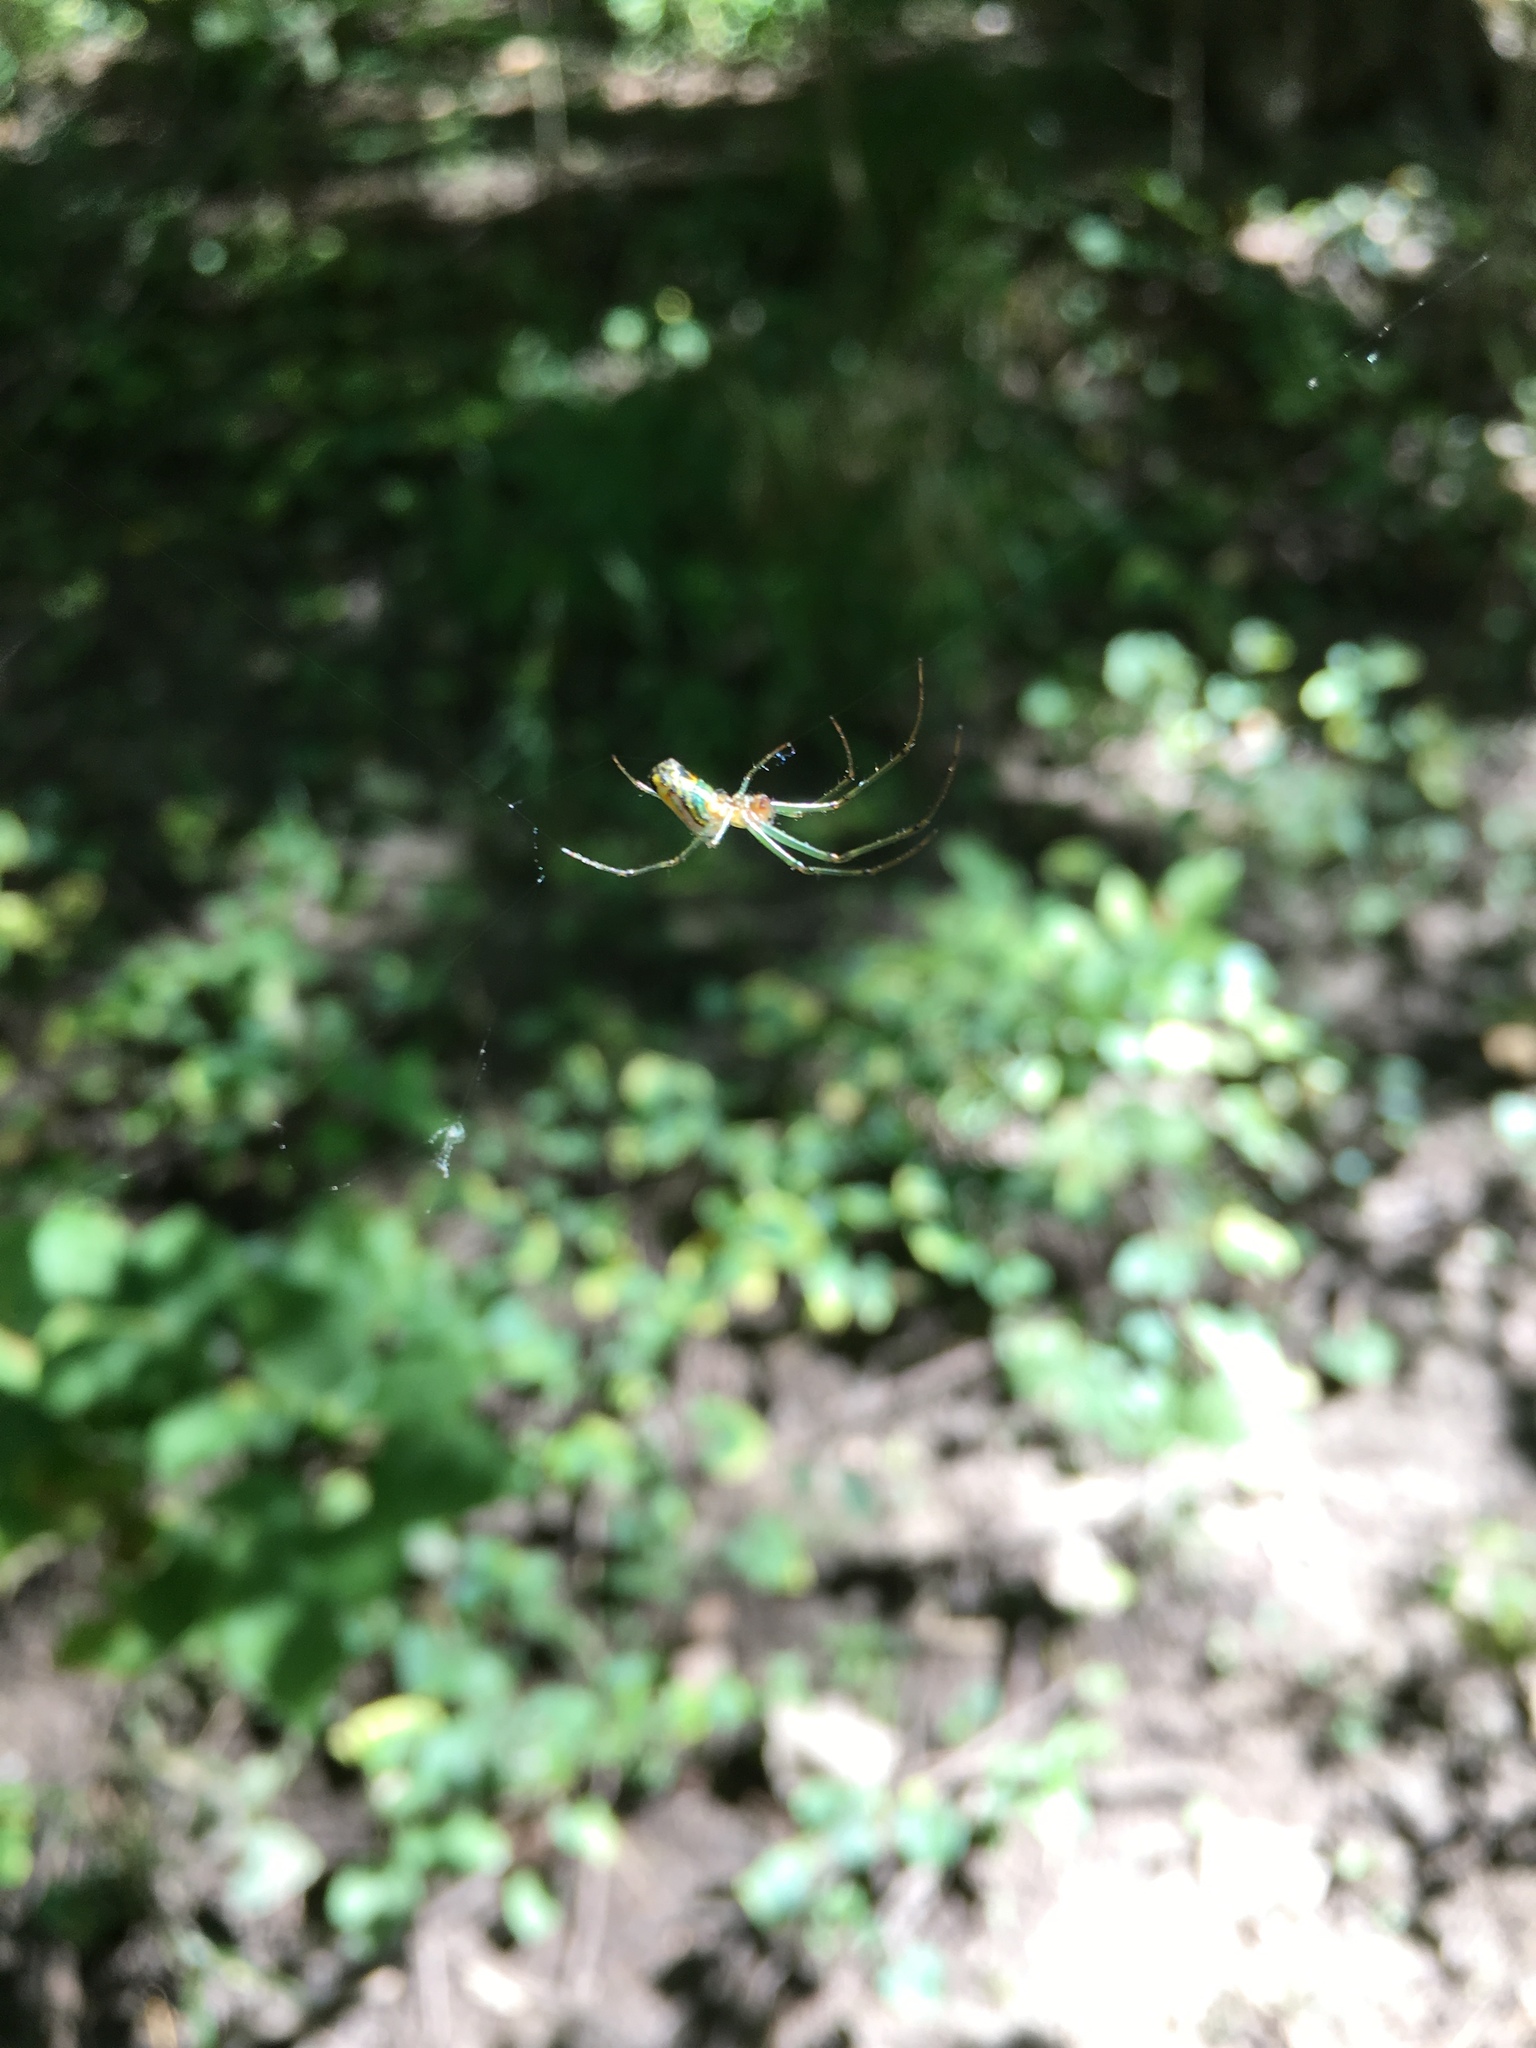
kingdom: Animalia
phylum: Arthropoda
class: Arachnida
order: Araneae
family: Tetragnathidae
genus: Leucauge
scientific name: Leucauge venusta
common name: Longjawed orb weavers
